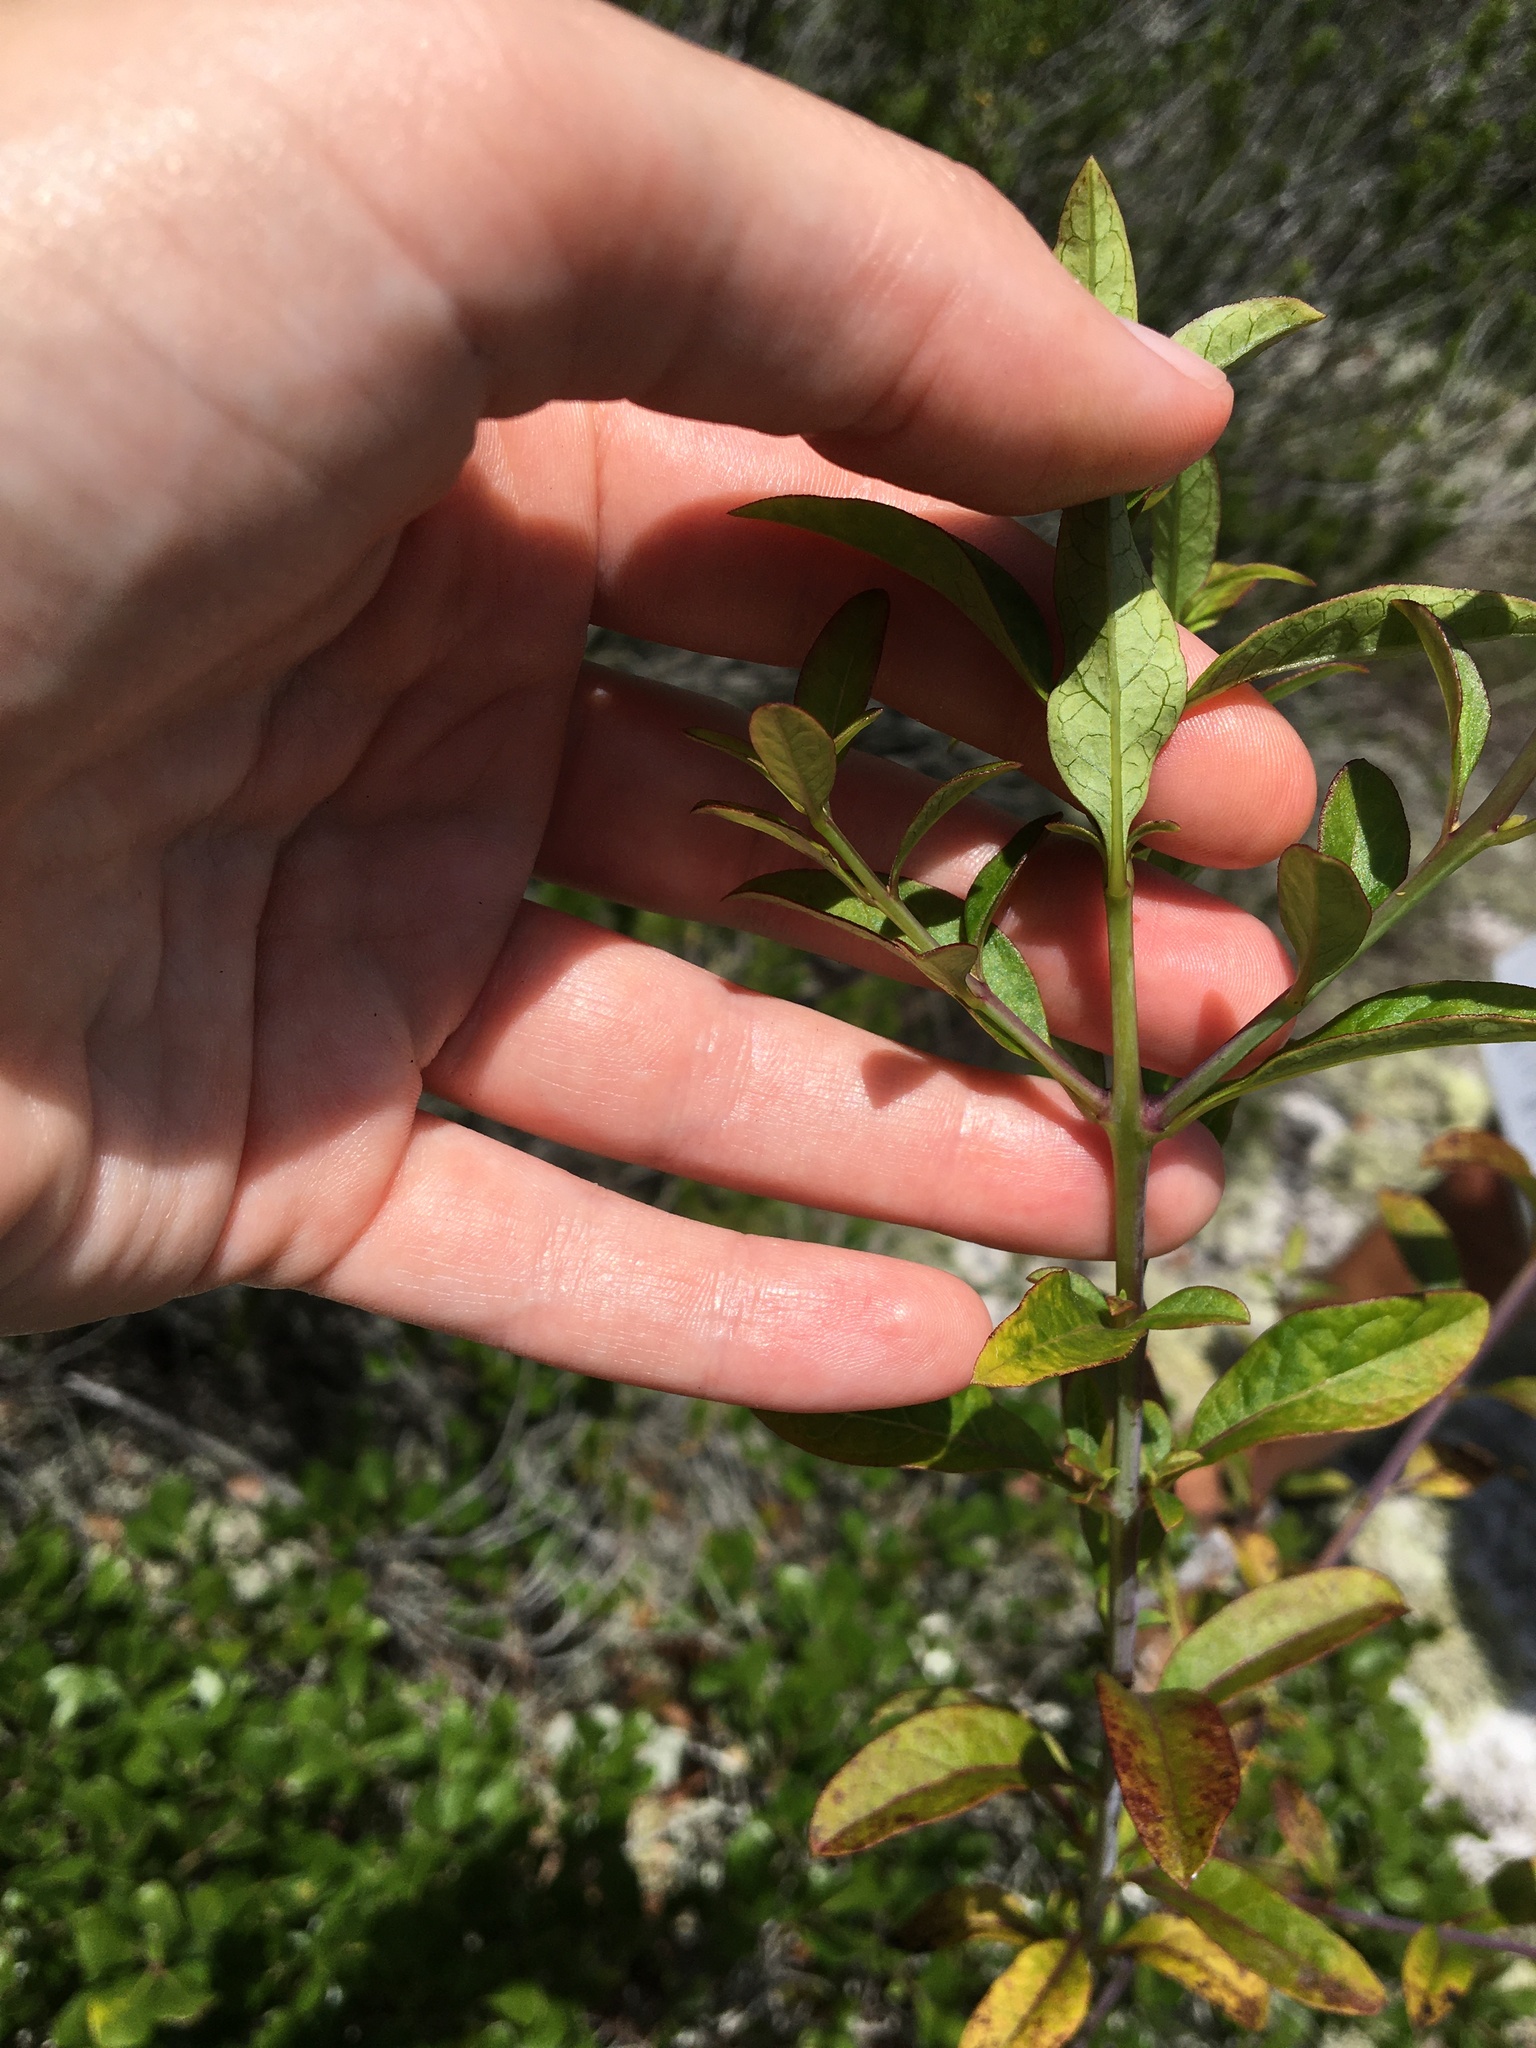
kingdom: Plantae
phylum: Tracheophyta
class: Magnoliopsida
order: Lamiales
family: Orobanchaceae
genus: Aureolaria
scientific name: Aureolaria flava
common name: Smooth false foxglove
